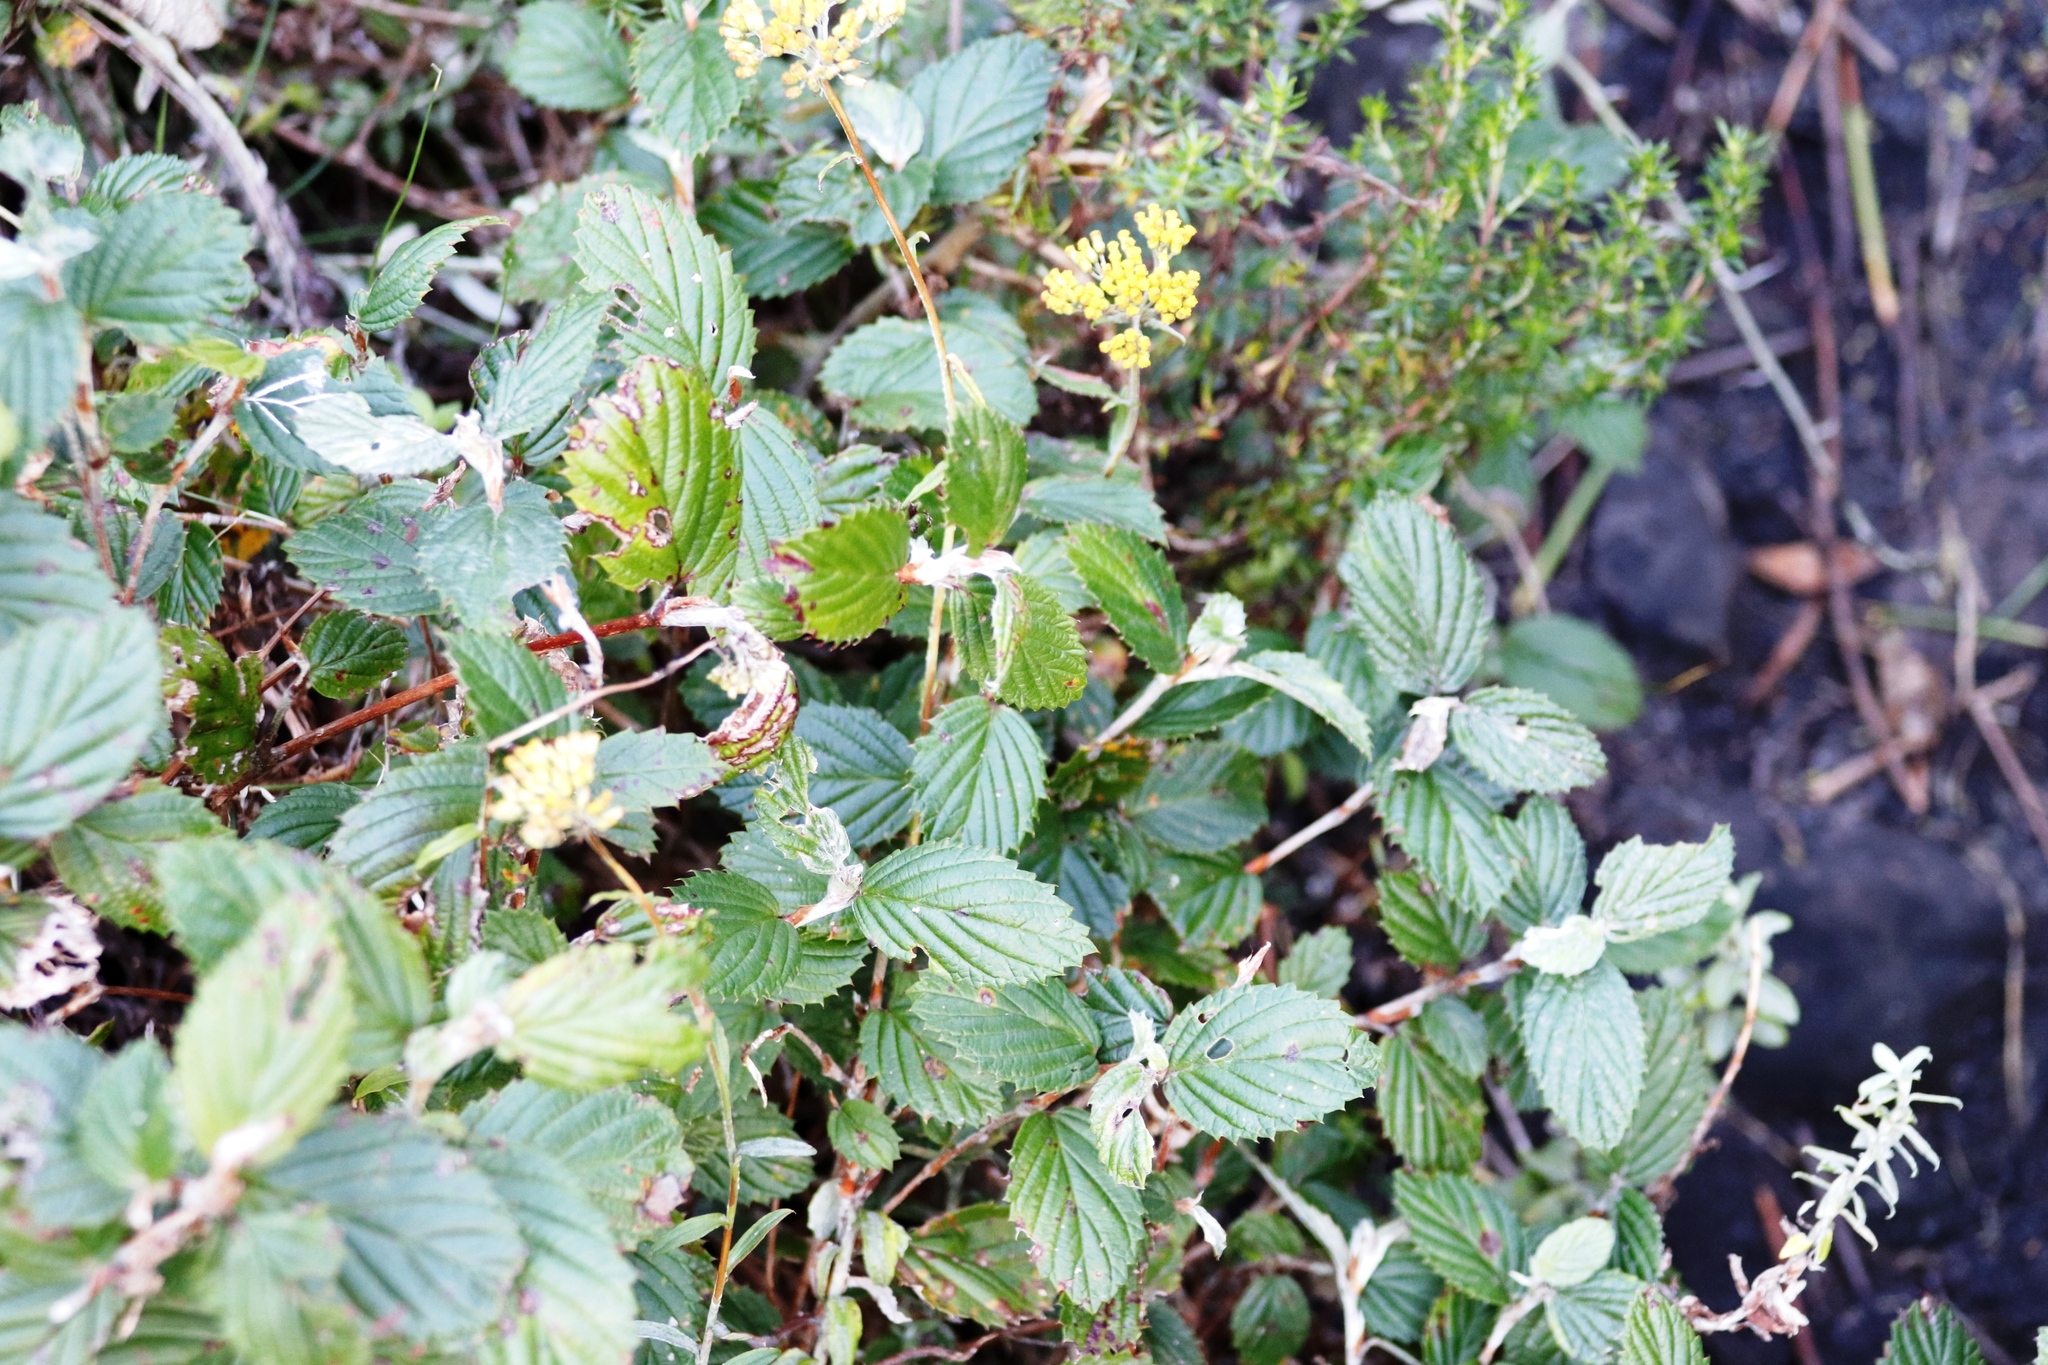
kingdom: Plantae
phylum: Tracheophyta
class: Magnoliopsida
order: Rosales
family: Rosaceae
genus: Cliffortia
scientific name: Cliffortia odorata
